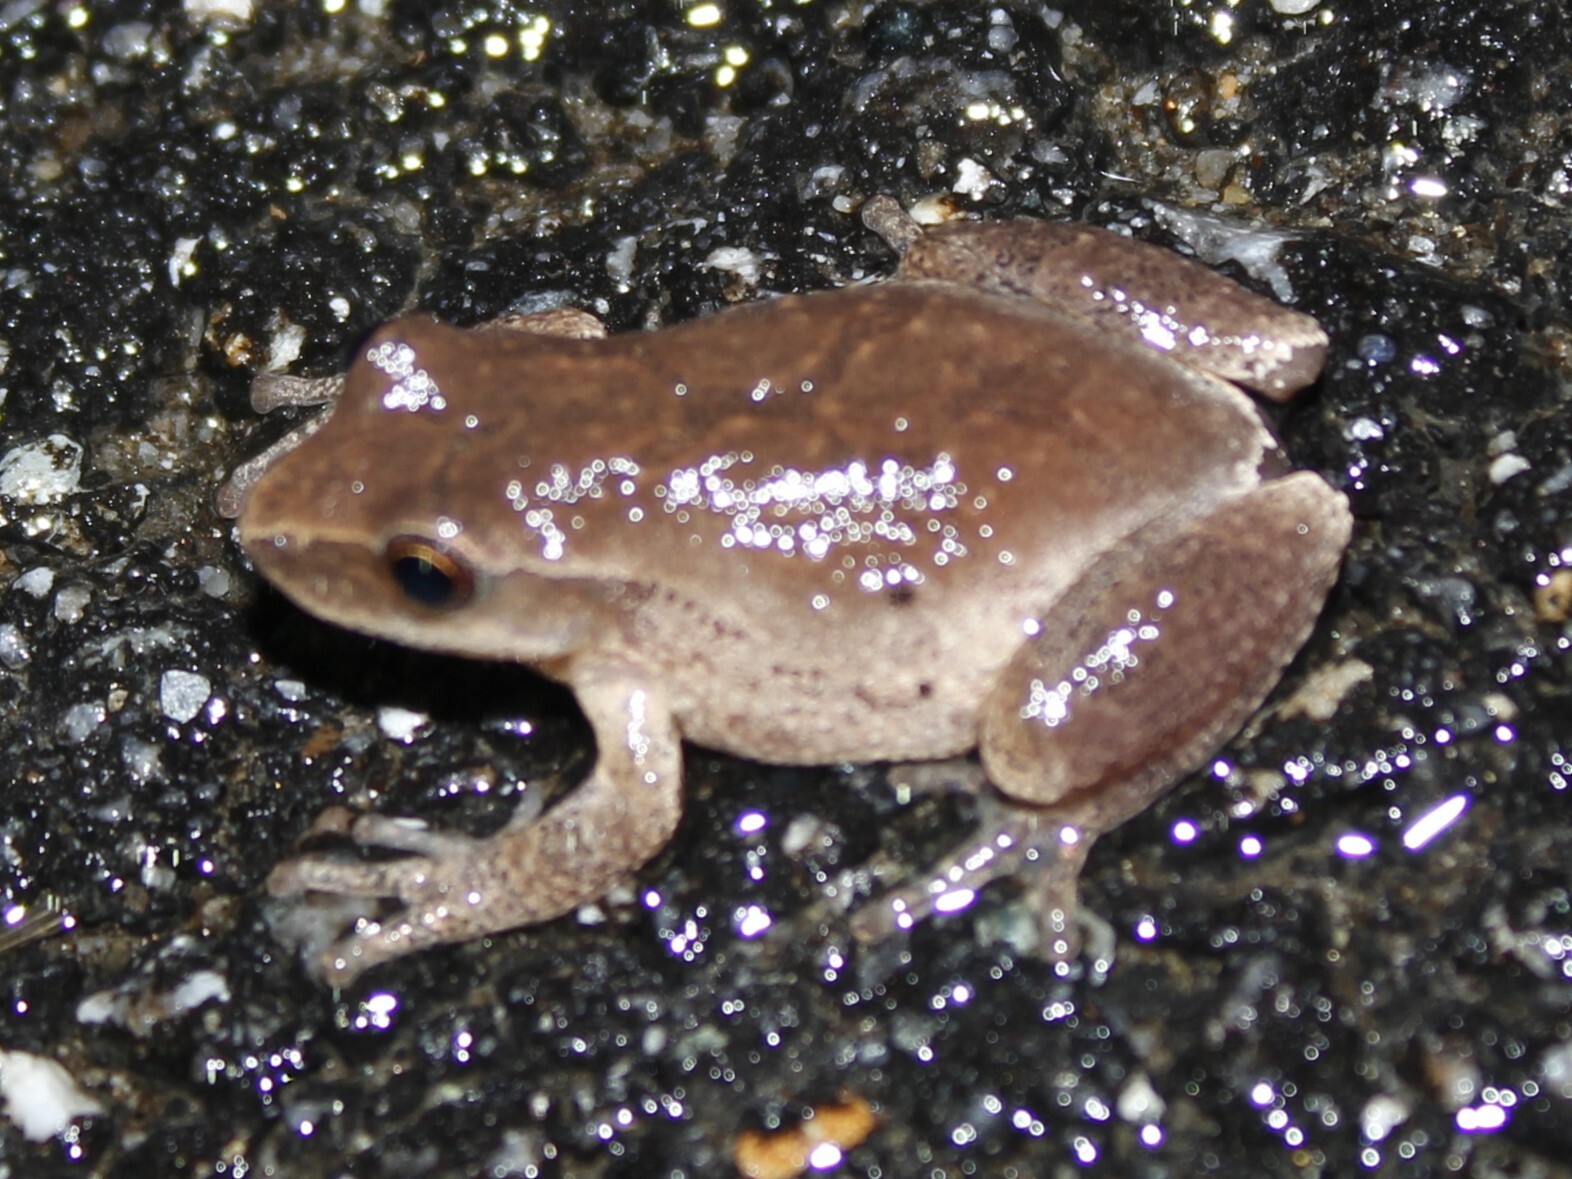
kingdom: Animalia
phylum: Chordata
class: Amphibia
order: Anura
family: Hylidae
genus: Pseudacris
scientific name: Pseudacris crucifer
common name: Spring peeper
